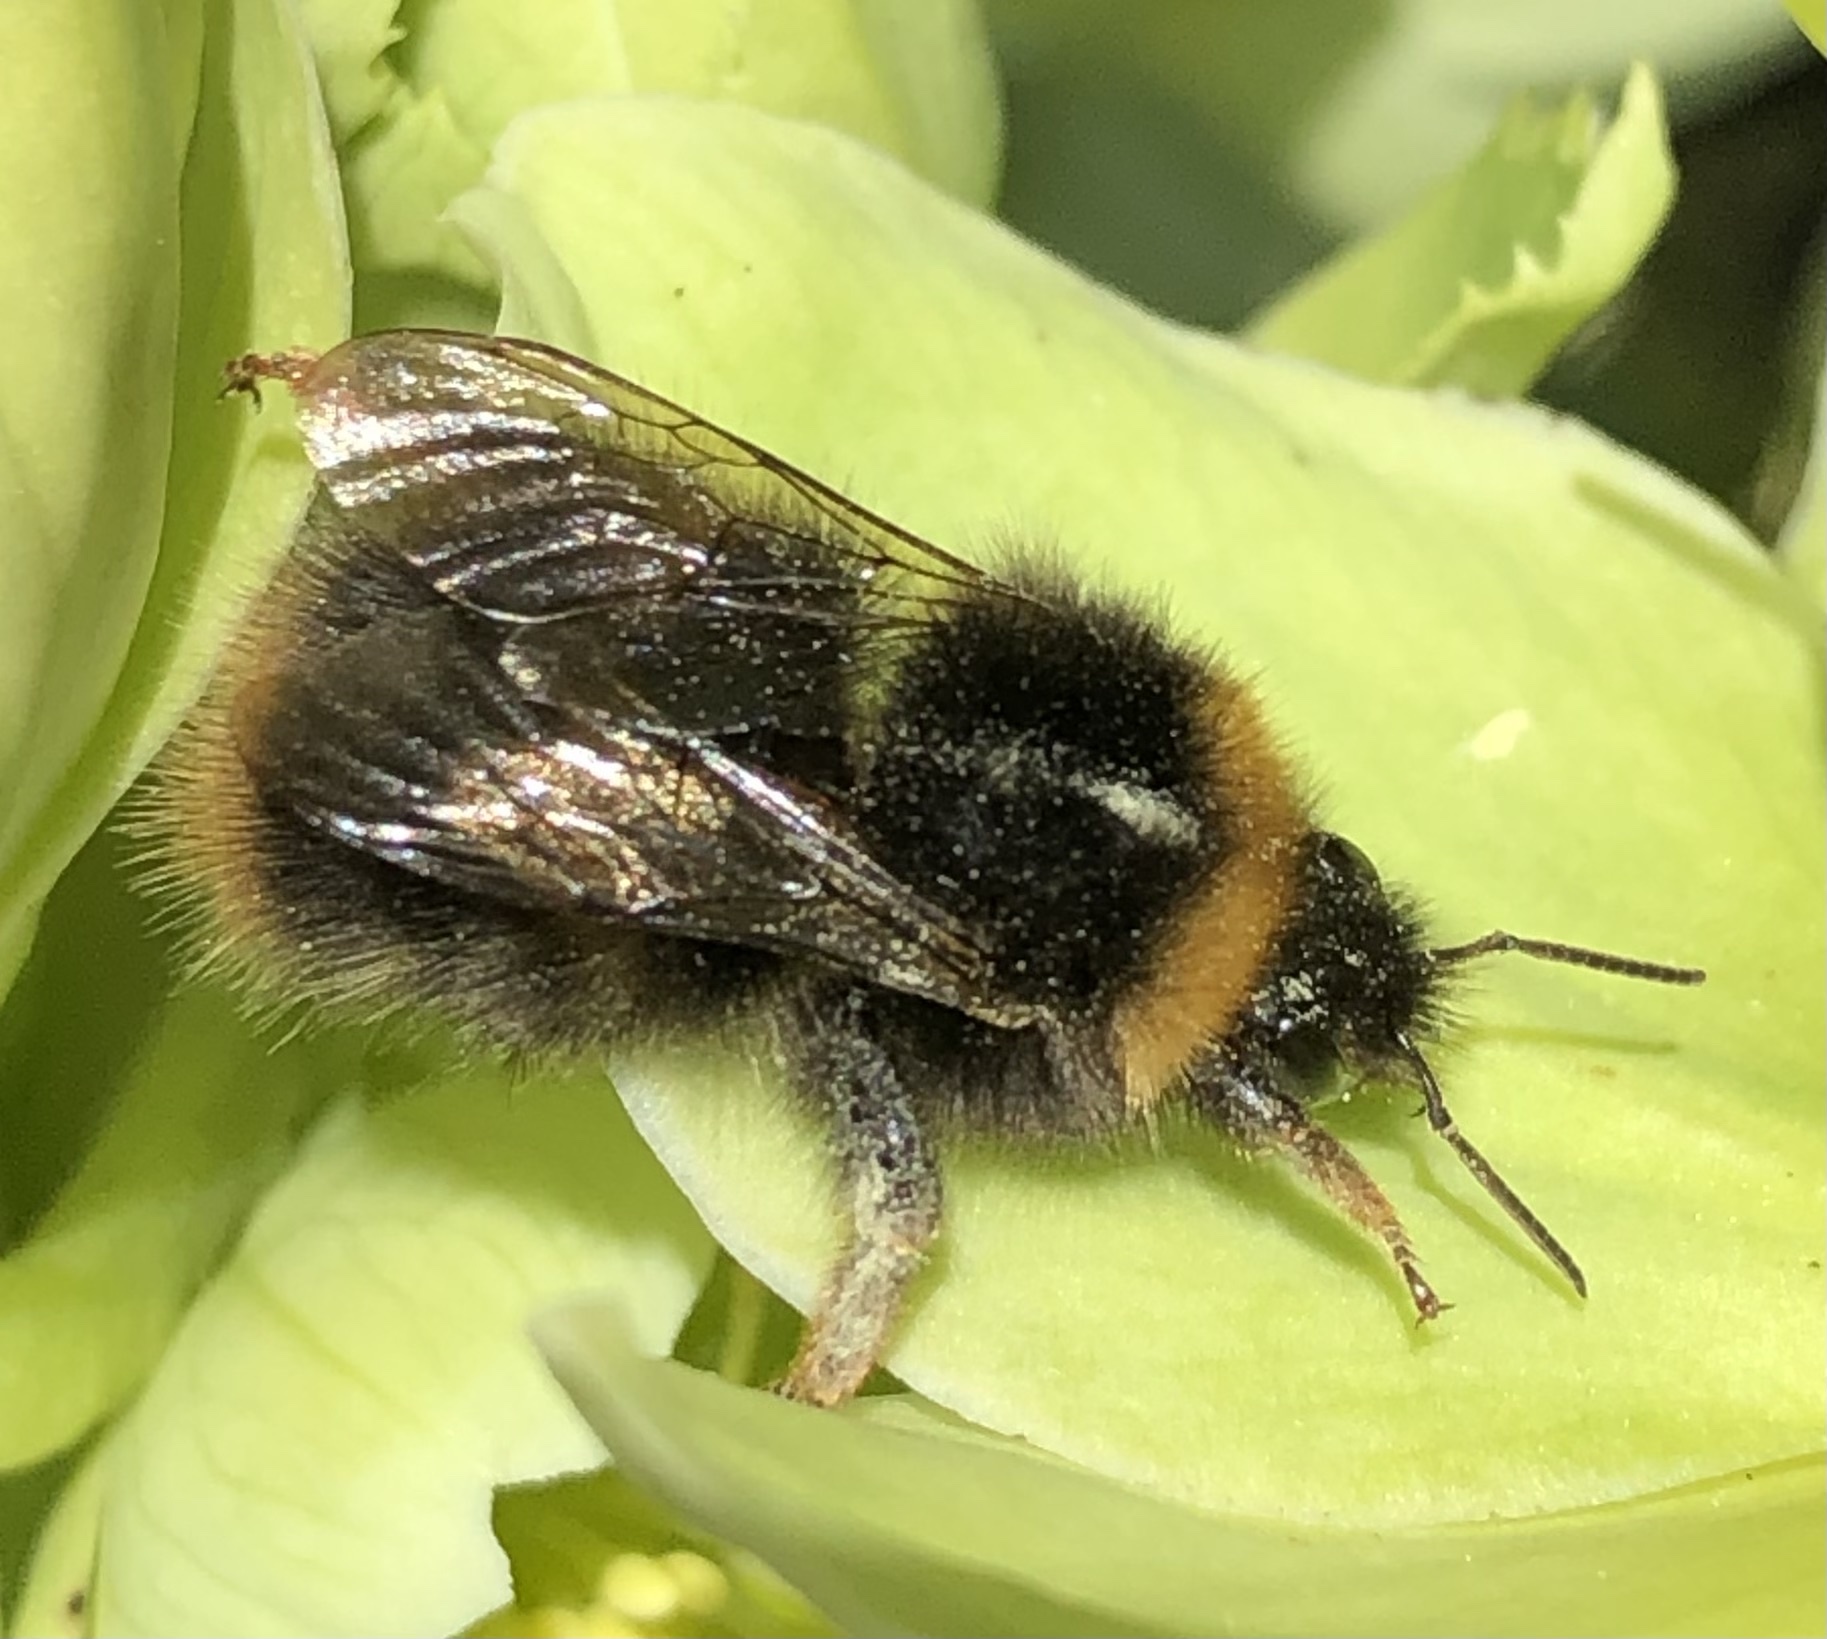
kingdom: Animalia
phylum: Arthropoda
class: Insecta
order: Hymenoptera
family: Apidae
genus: Bombus
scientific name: Bombus pratorum
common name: Early humble-bee
